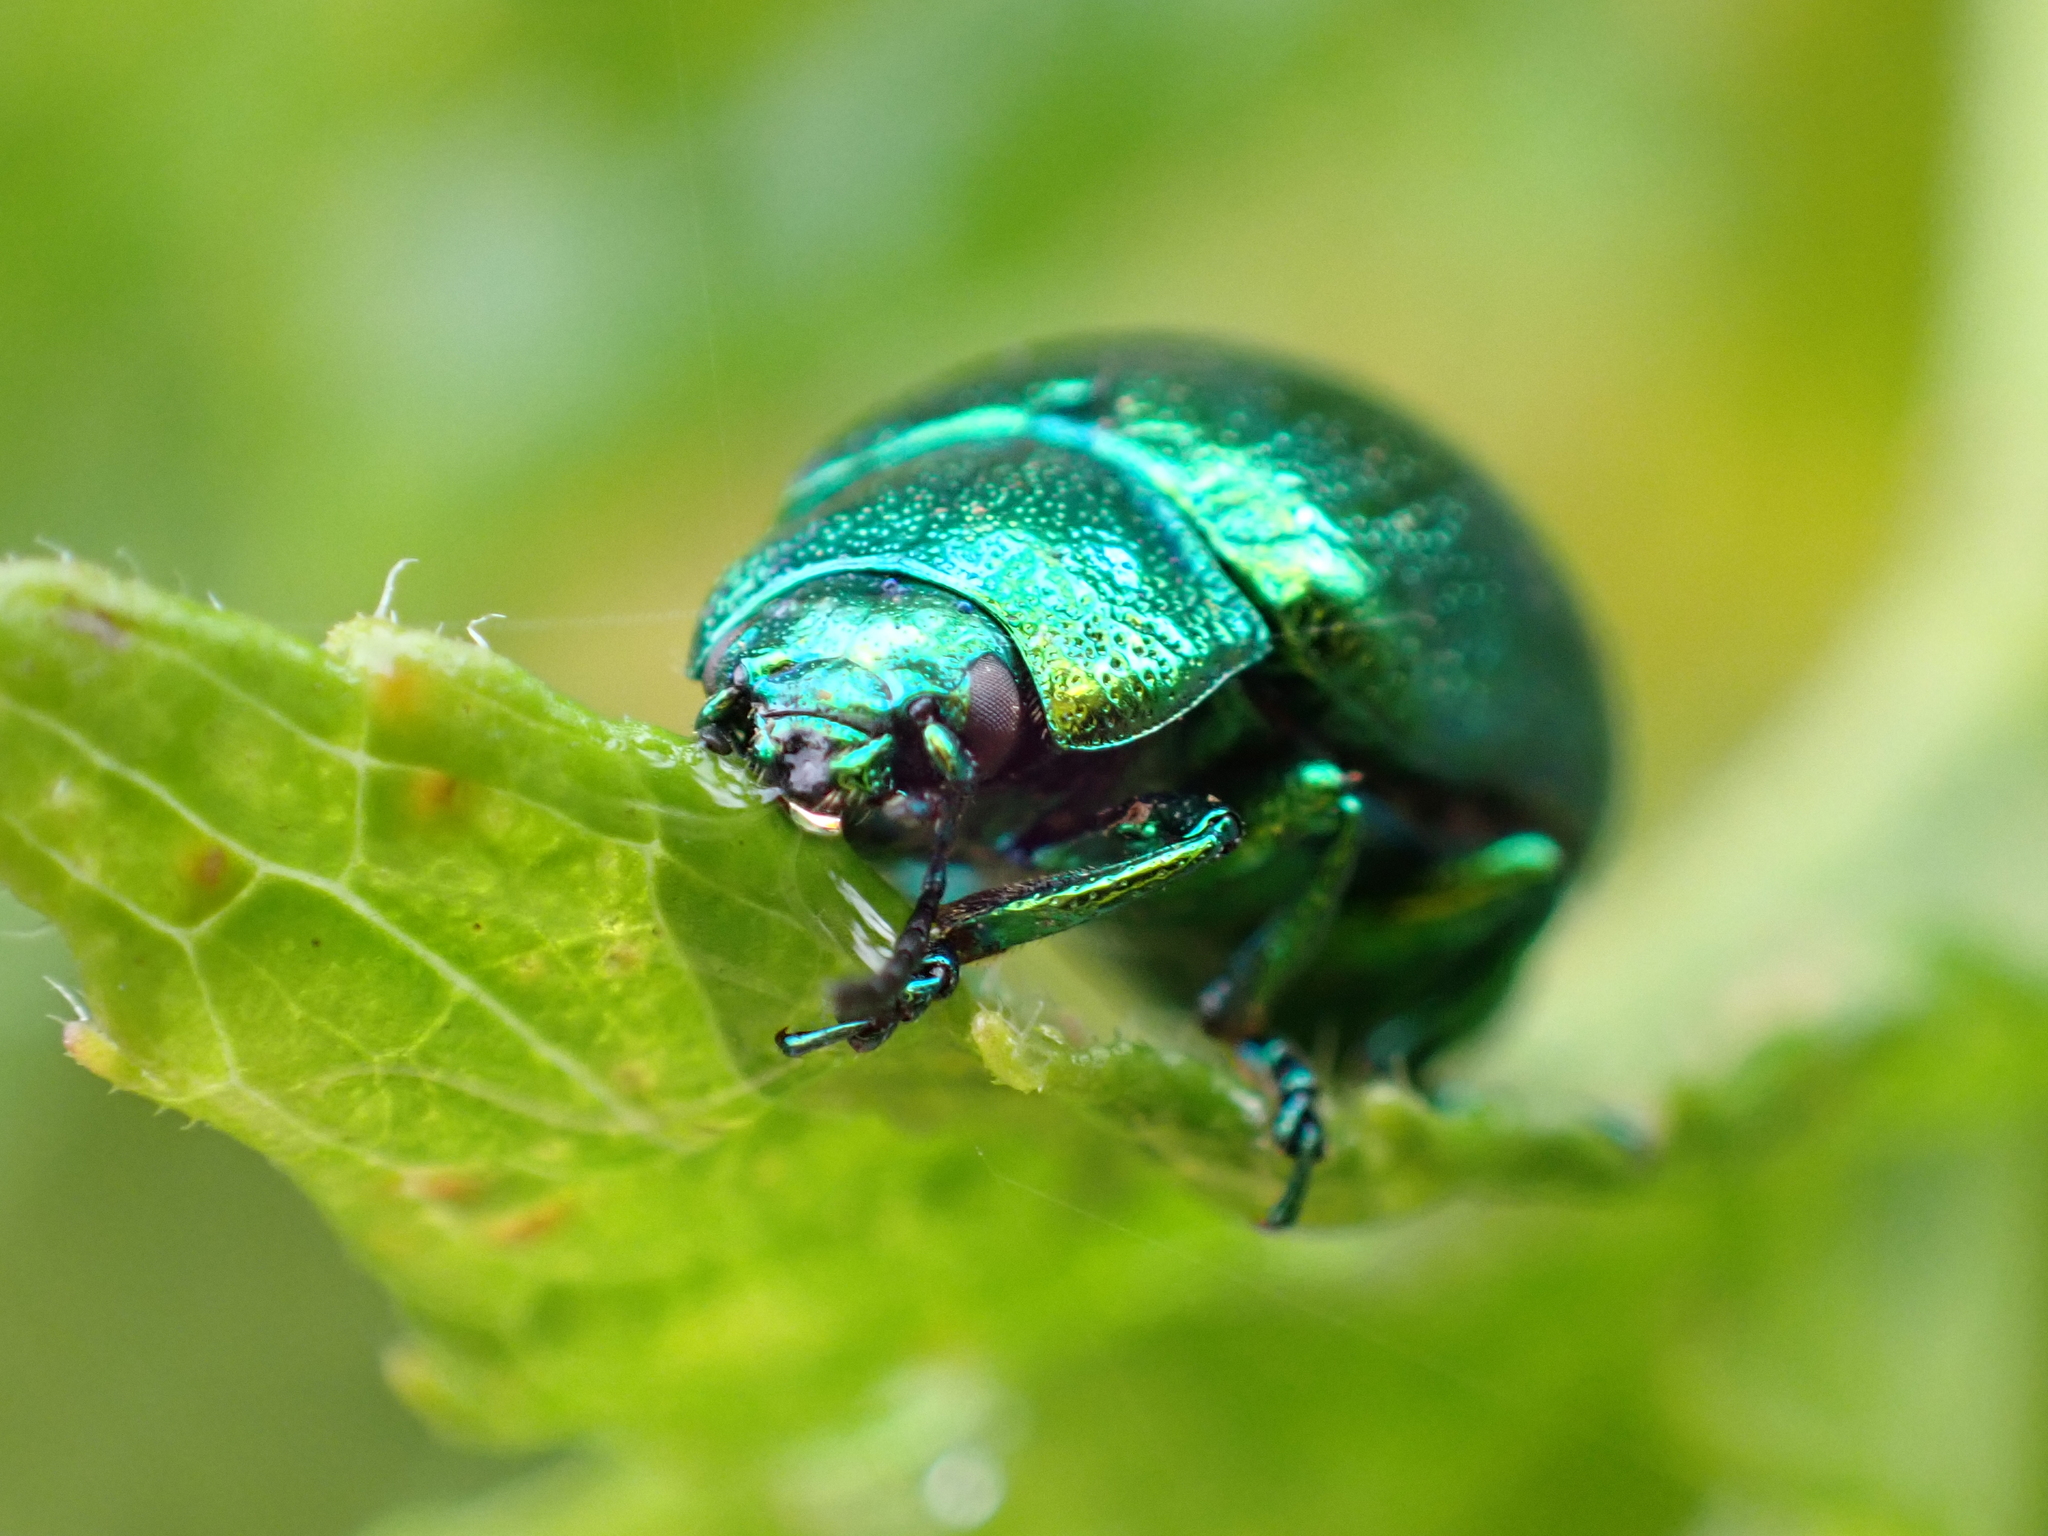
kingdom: Animalia
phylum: Arthropoda
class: Insecta
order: Coleoptera
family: Chrysomelidae
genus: Chrysolina
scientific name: Chrysolina herbacea
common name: Mint leaf beatle
